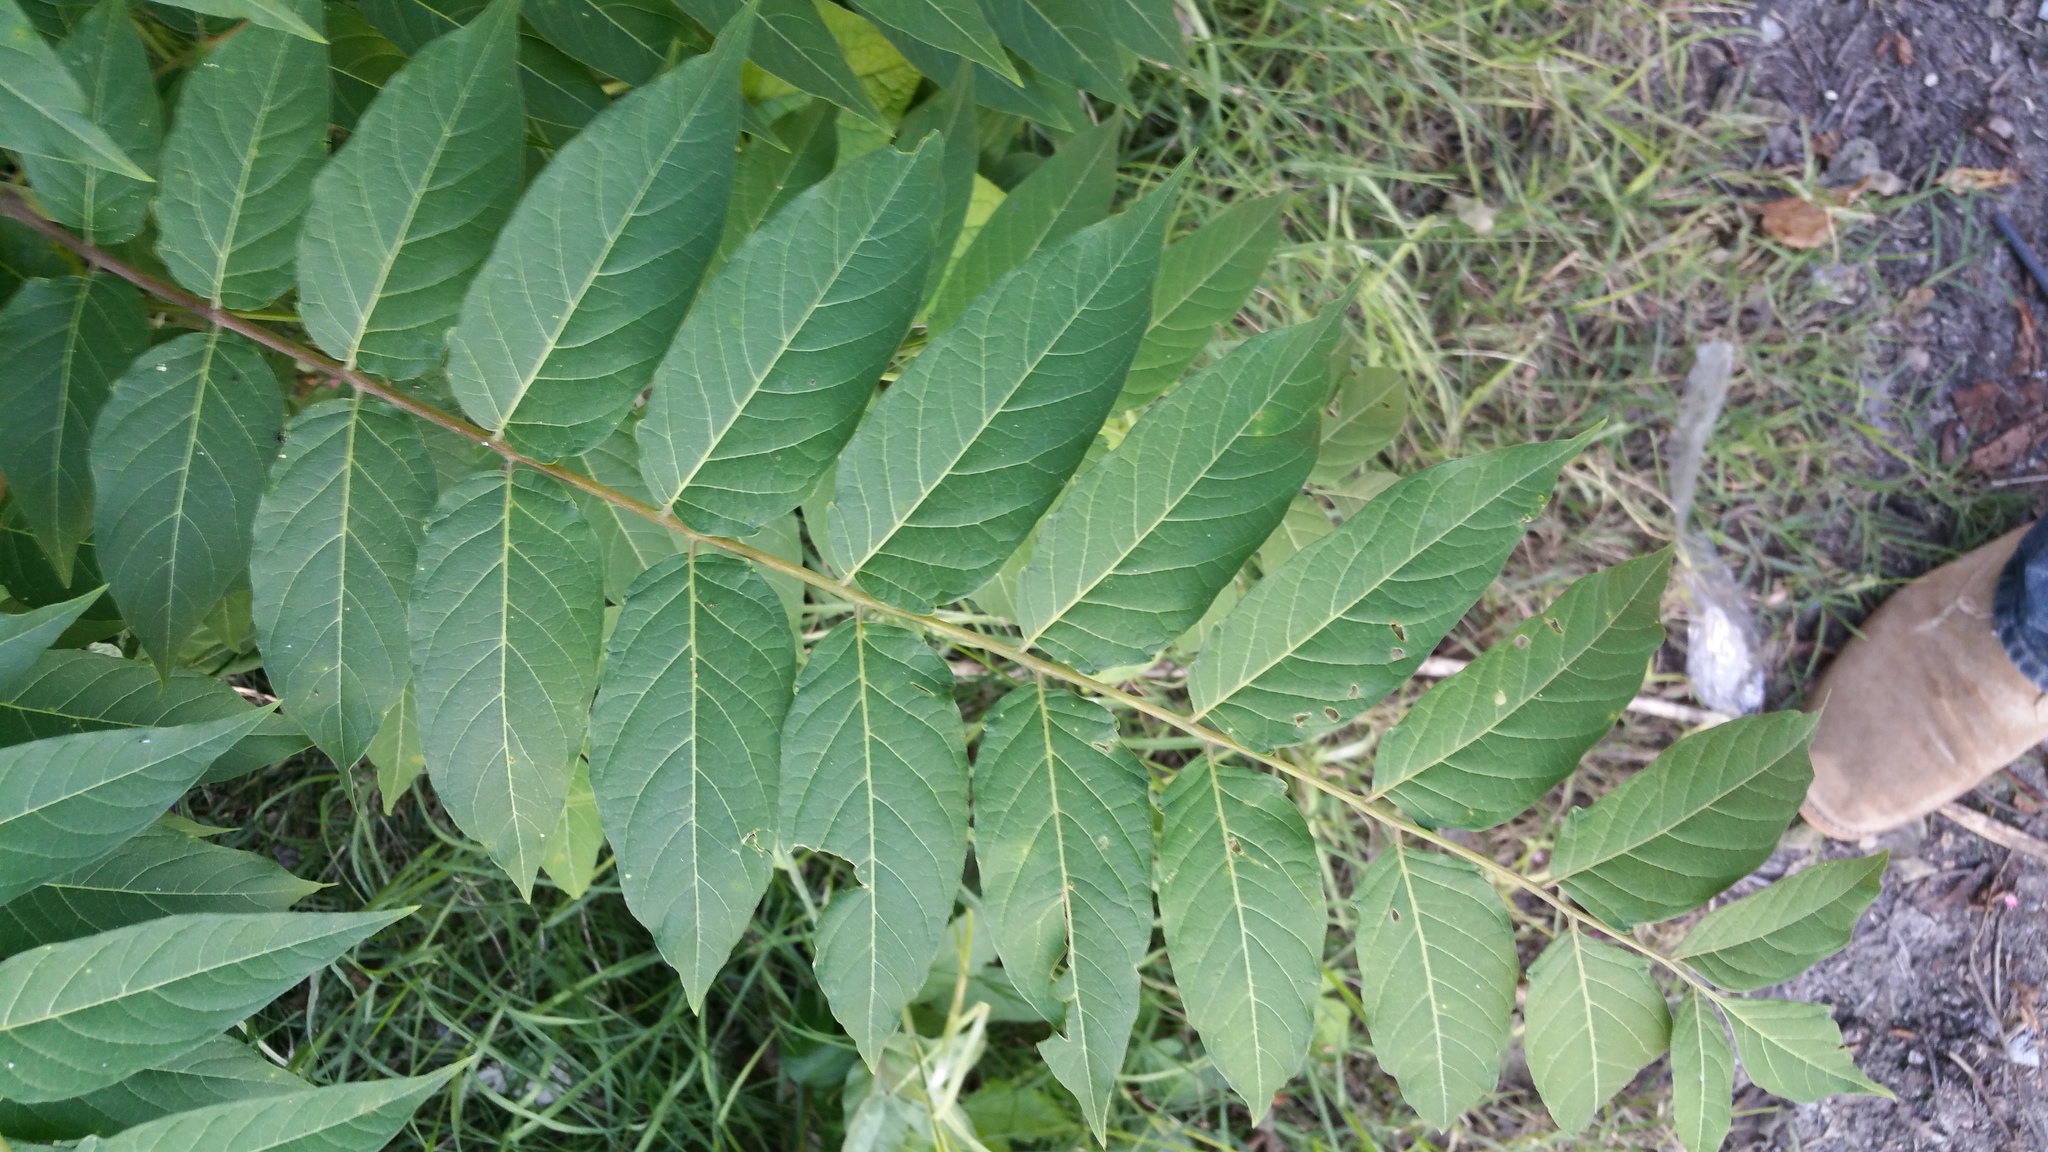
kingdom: Plantae
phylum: Tracheophyta
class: Magnoliopsida
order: Sapindales
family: Simaroubaceae
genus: Ailanthus
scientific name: Ailanthus altissima
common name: Tree-of-heaven
